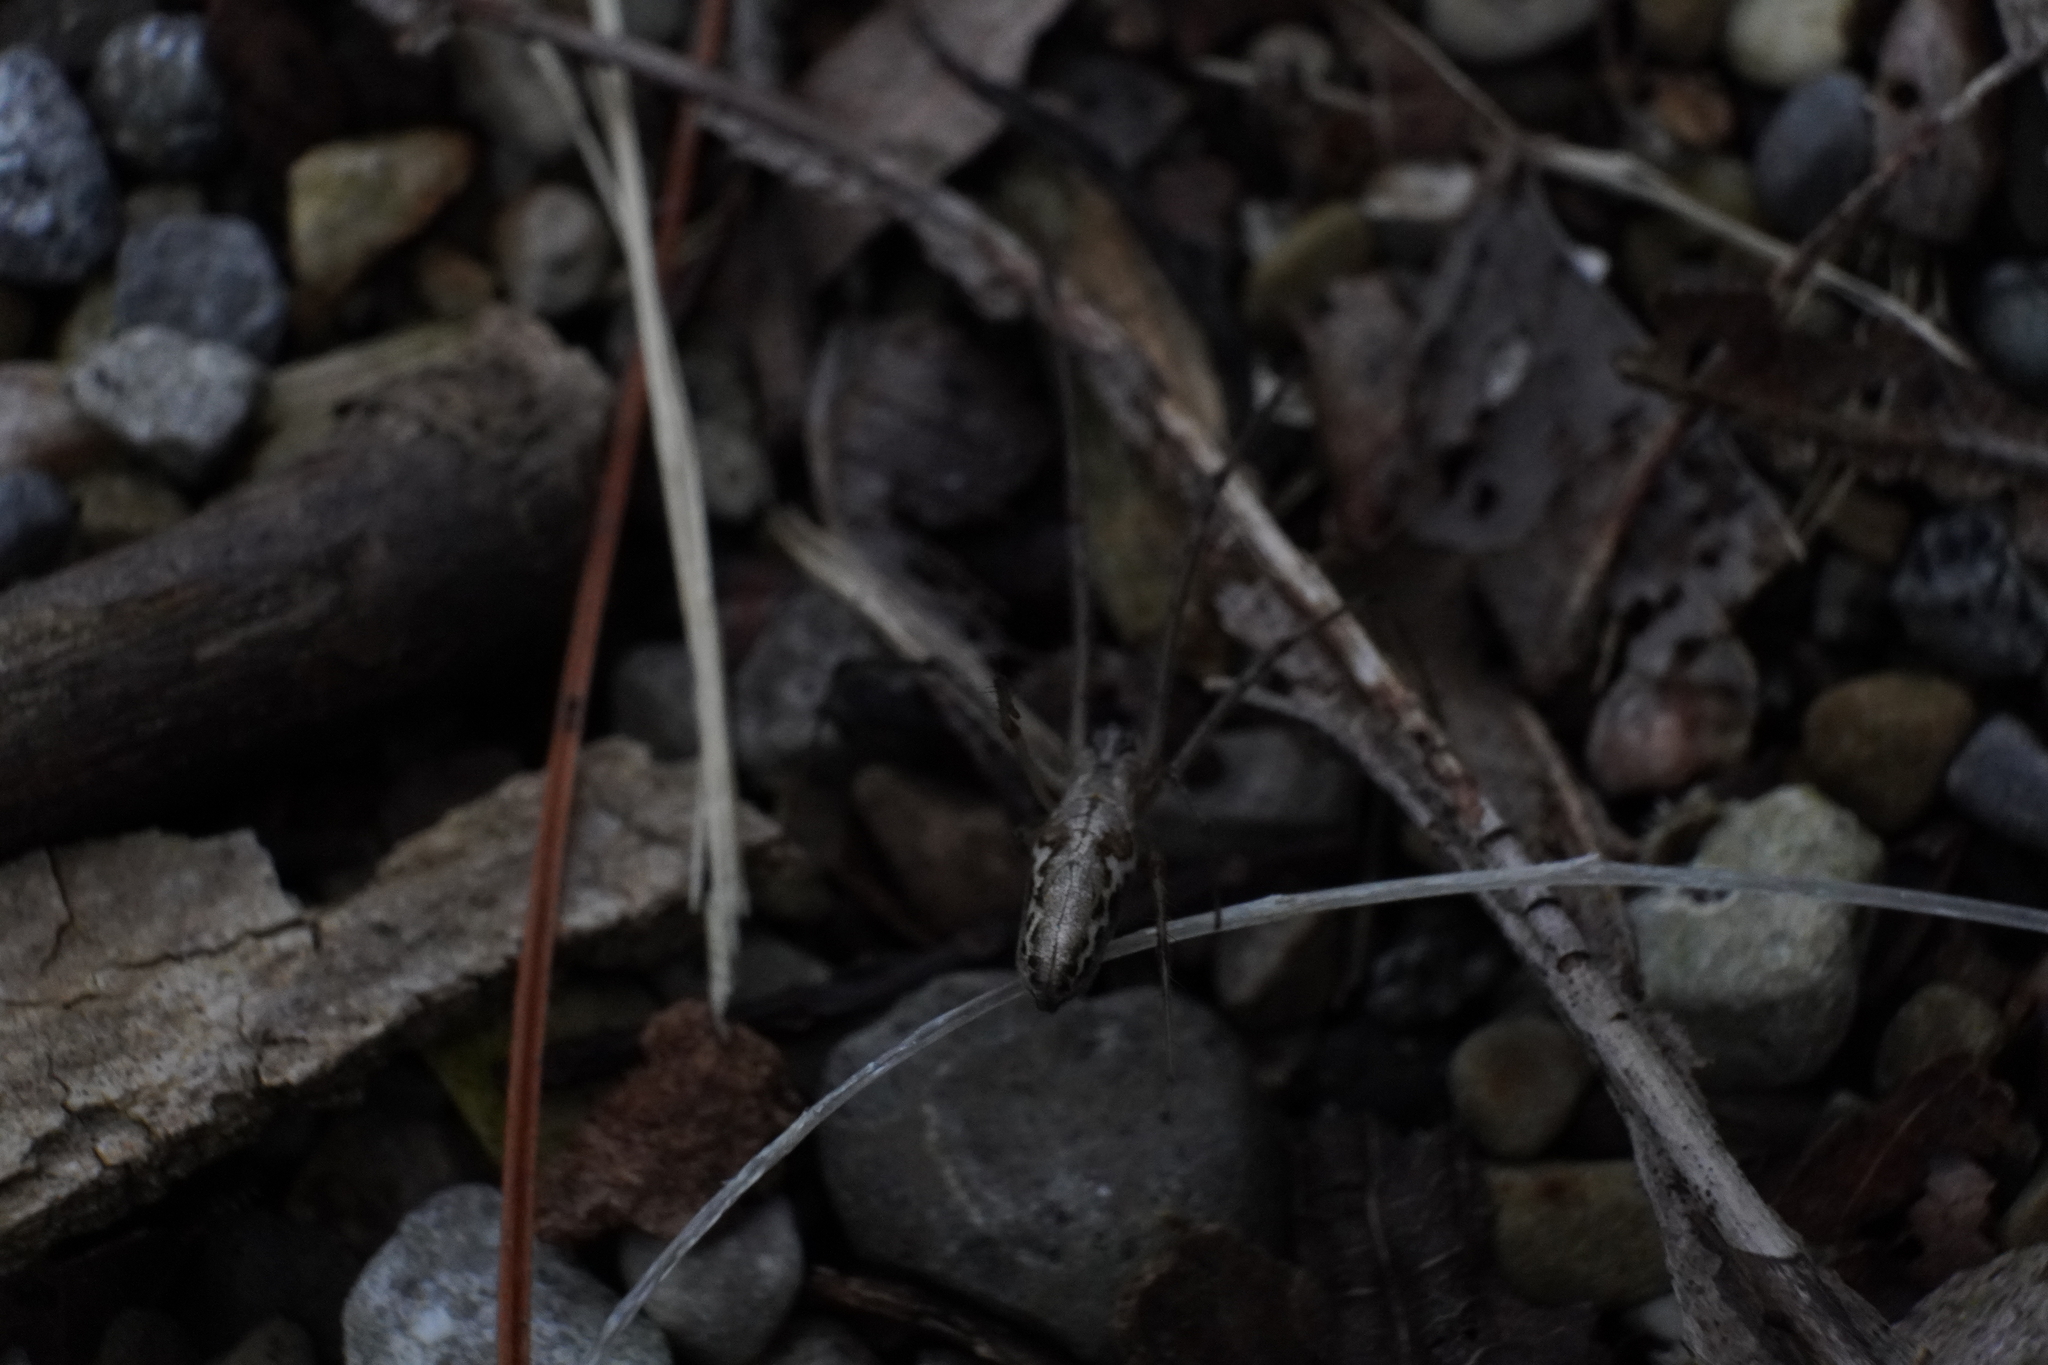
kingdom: Animalia
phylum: Arthropoda
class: Arachnida
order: Araneae
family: Tetragnathidae
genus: Tetragnatha
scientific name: Tetragnatha elongata
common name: Longjawed orb weavers
